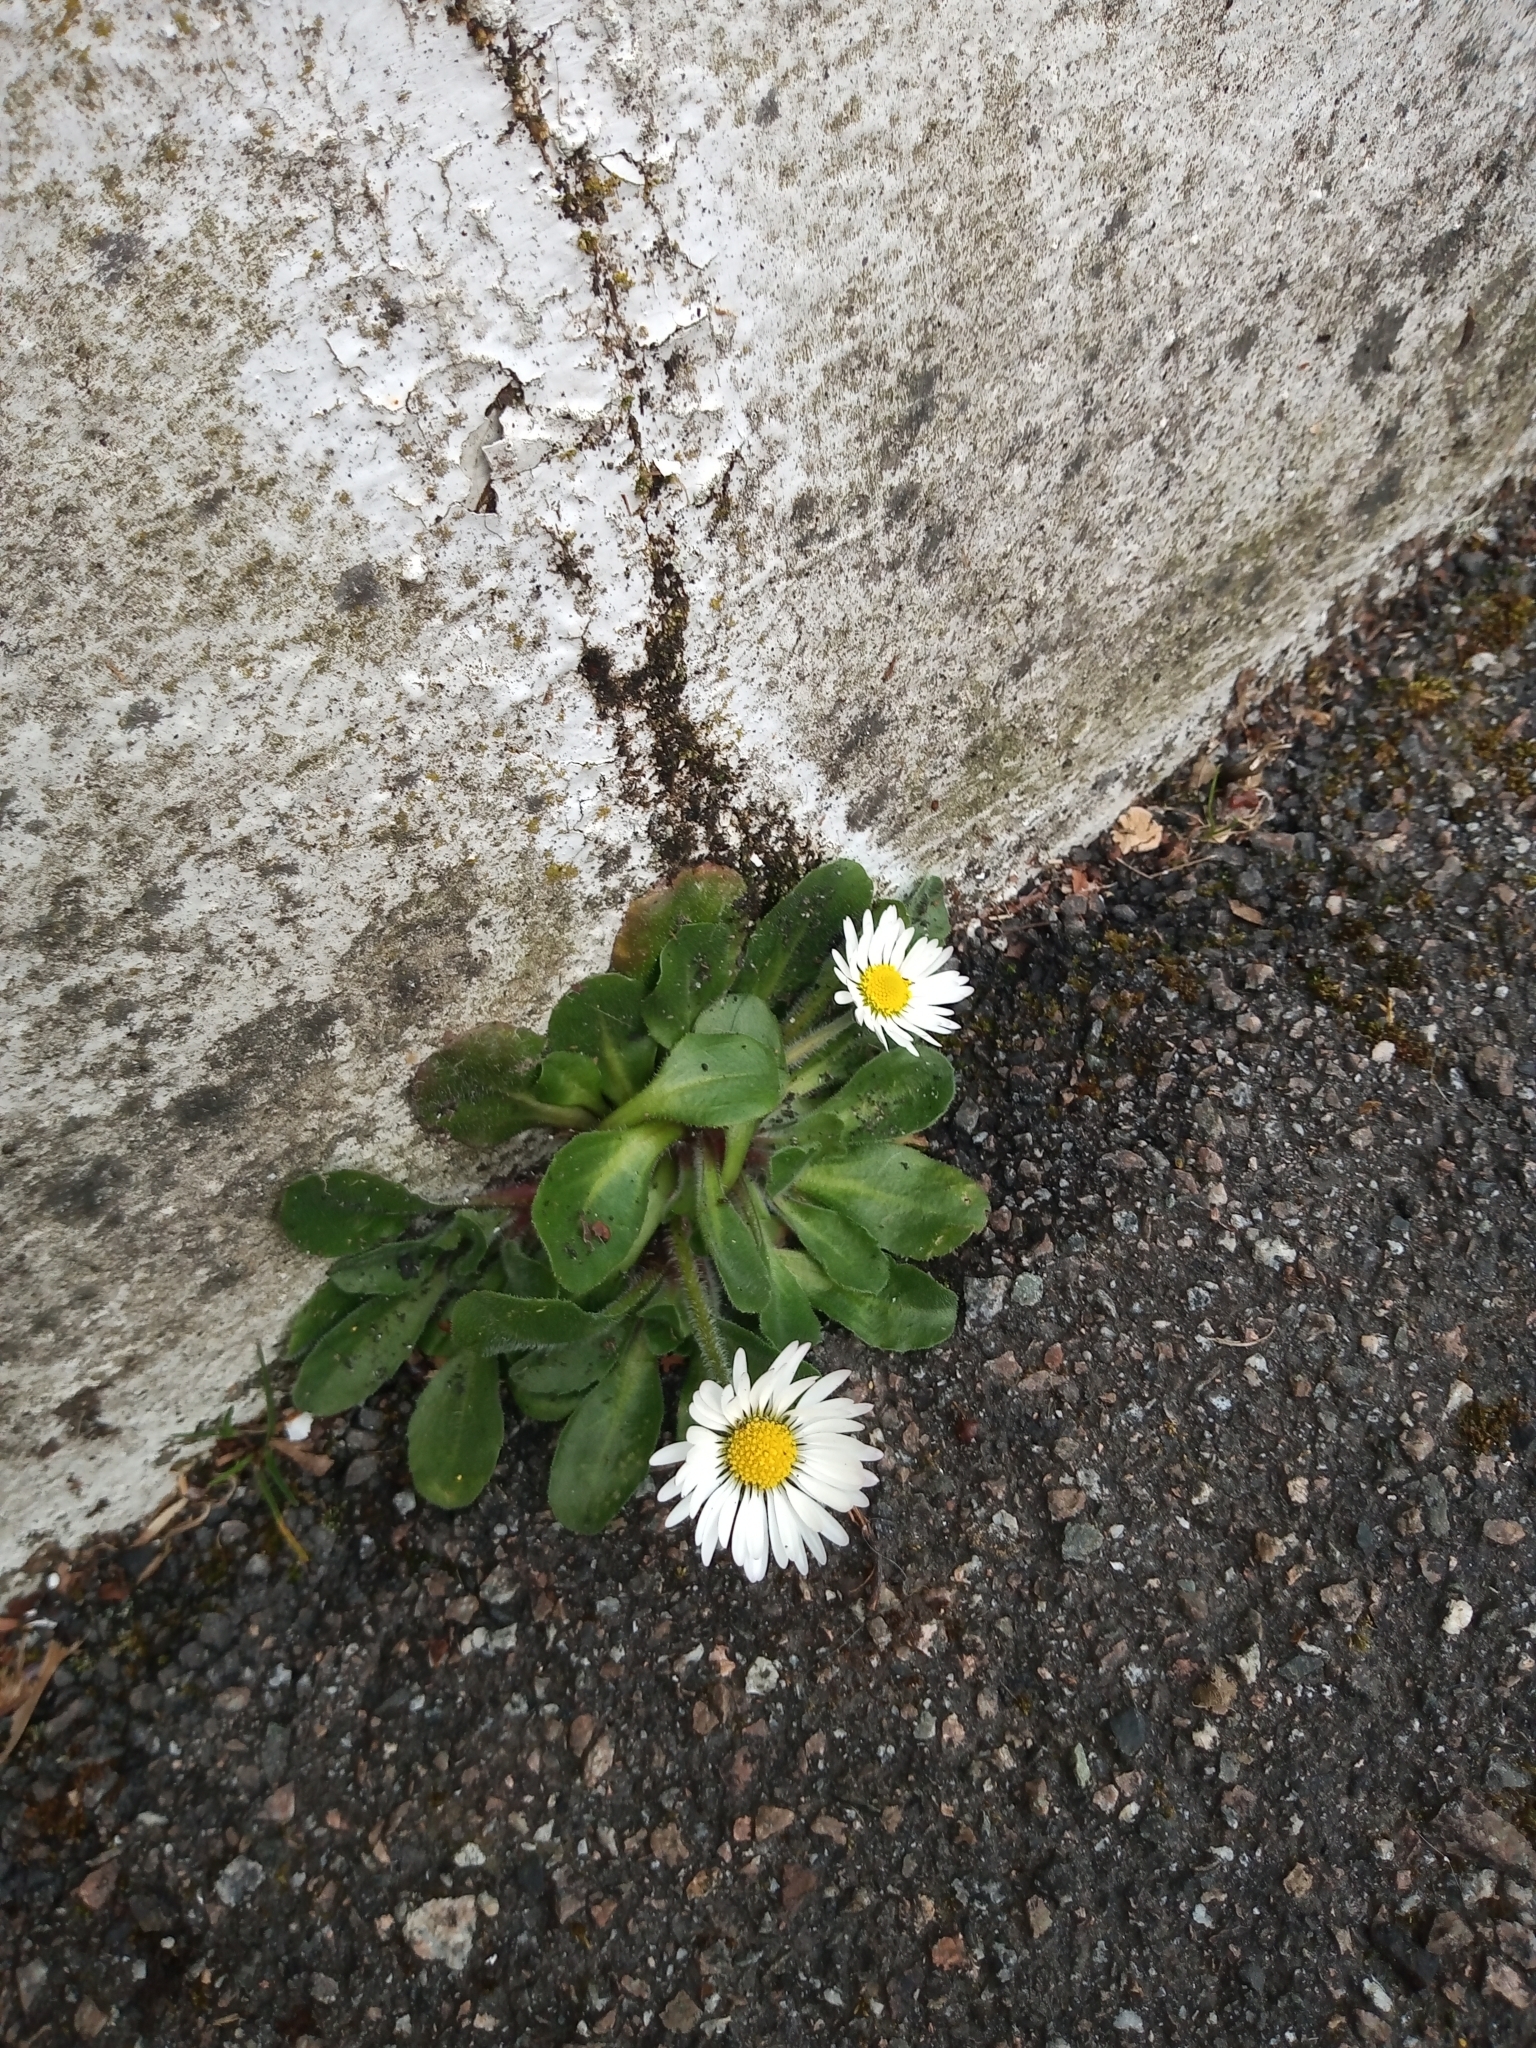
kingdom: Plantae
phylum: Tracheophyta
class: Magnoliopsida
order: Asterales
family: Asteraceae
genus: Bellis
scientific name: Bellis perennis
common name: Lawndaisy
